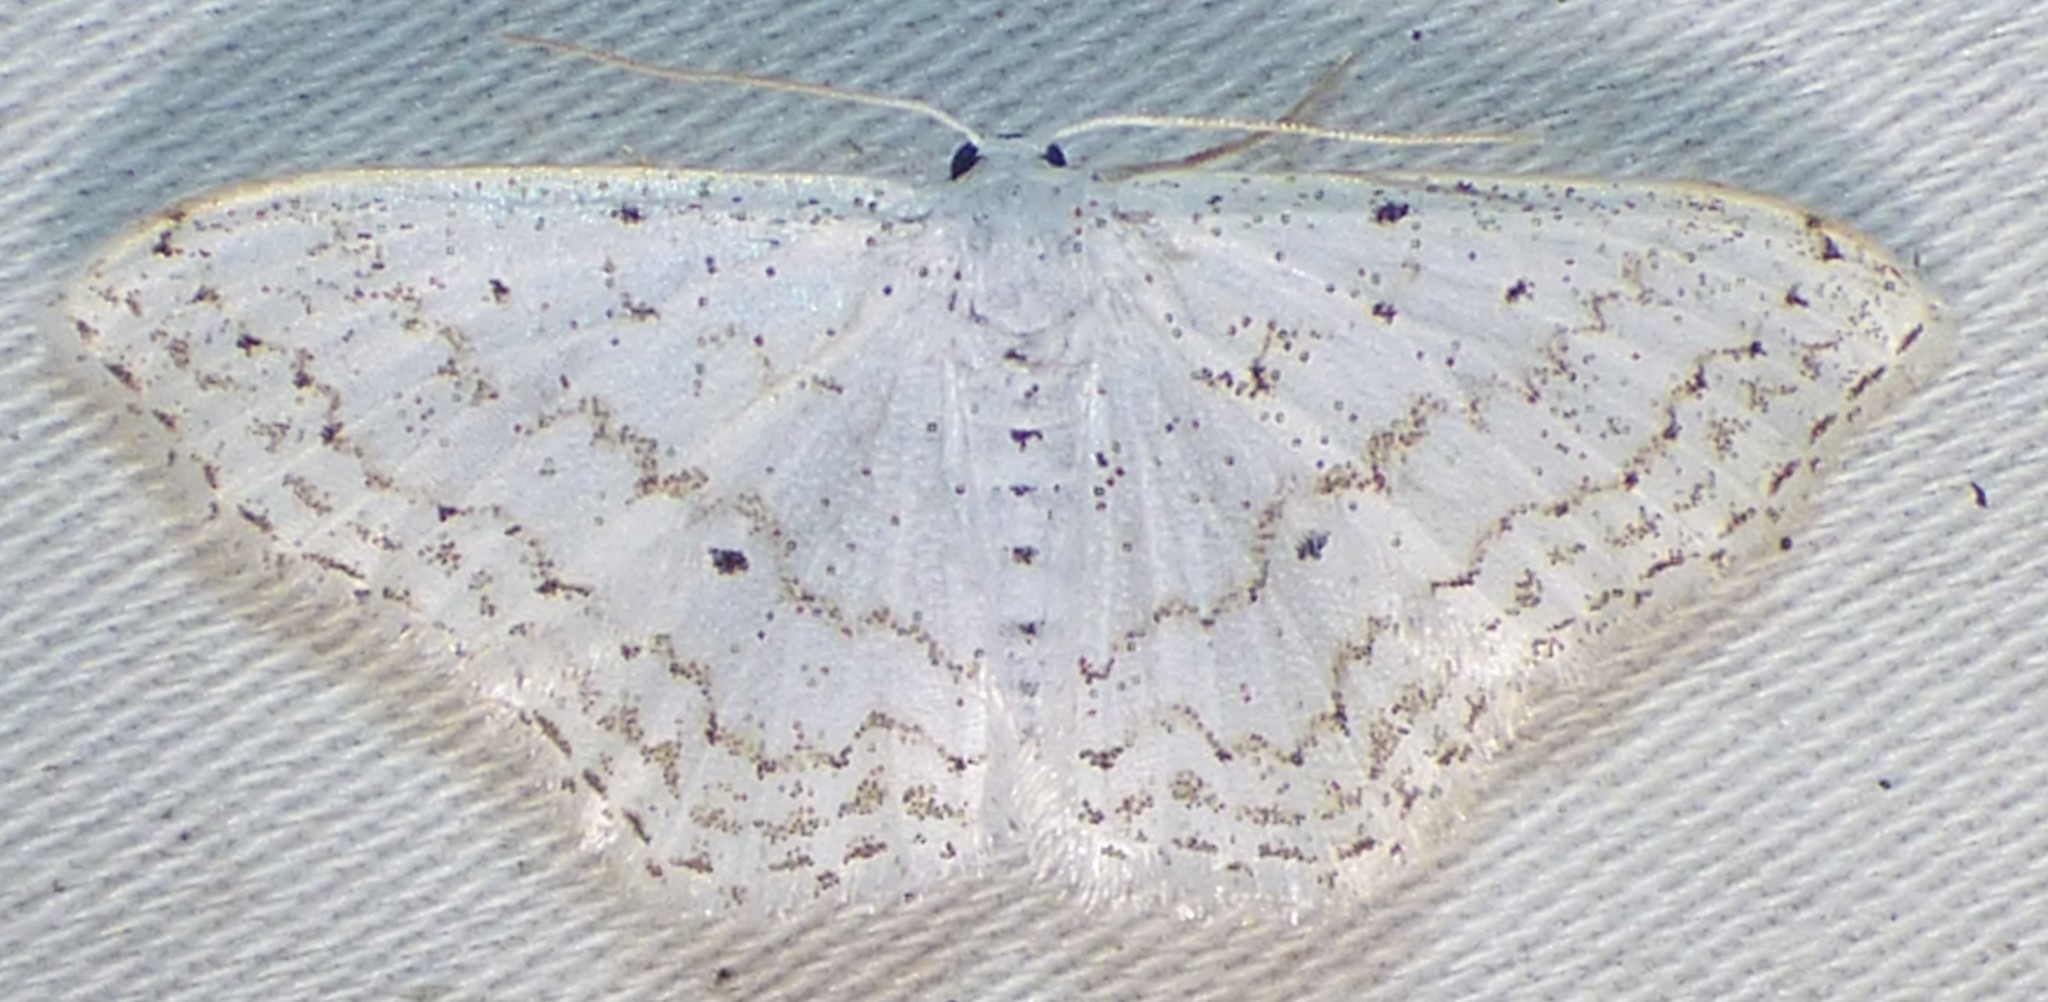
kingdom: Animalia
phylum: Arthropoda
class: Insecta
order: Lepidoptera
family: Geometridae
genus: Idaea
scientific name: Idaea tacturata
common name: Dot-lined wave
